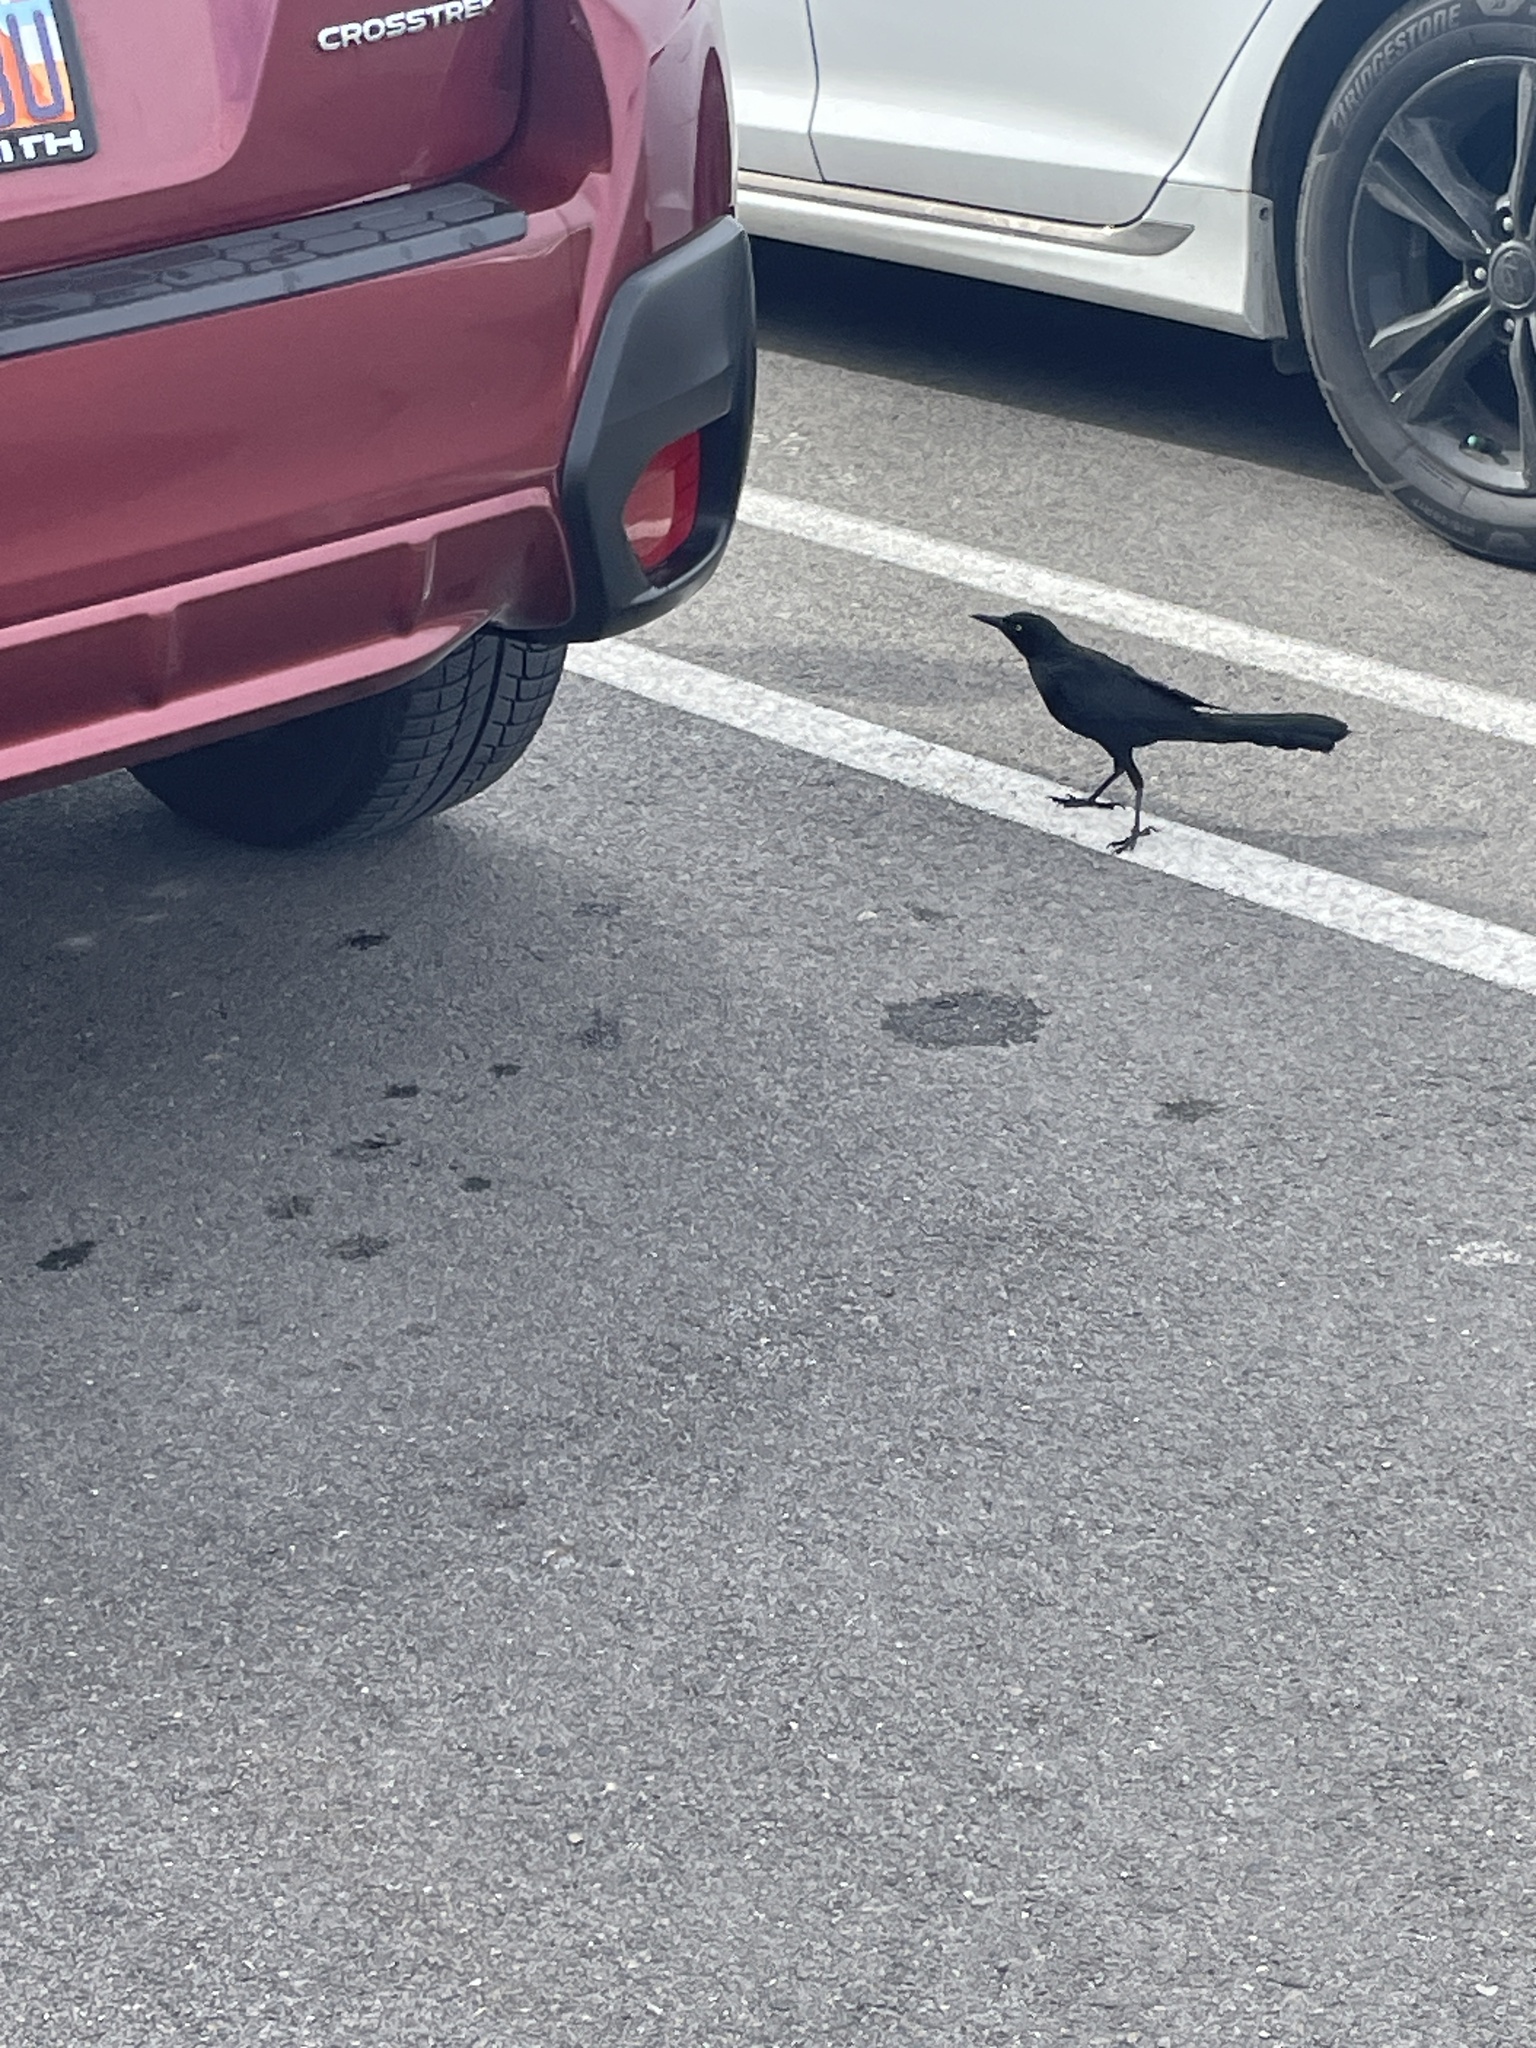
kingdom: Animalia
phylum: Chordata
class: Aves
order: Passeriformes
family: Icteridae
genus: Quiscalus
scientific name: Quiscalus mexicanus
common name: Great-tailed grackle
